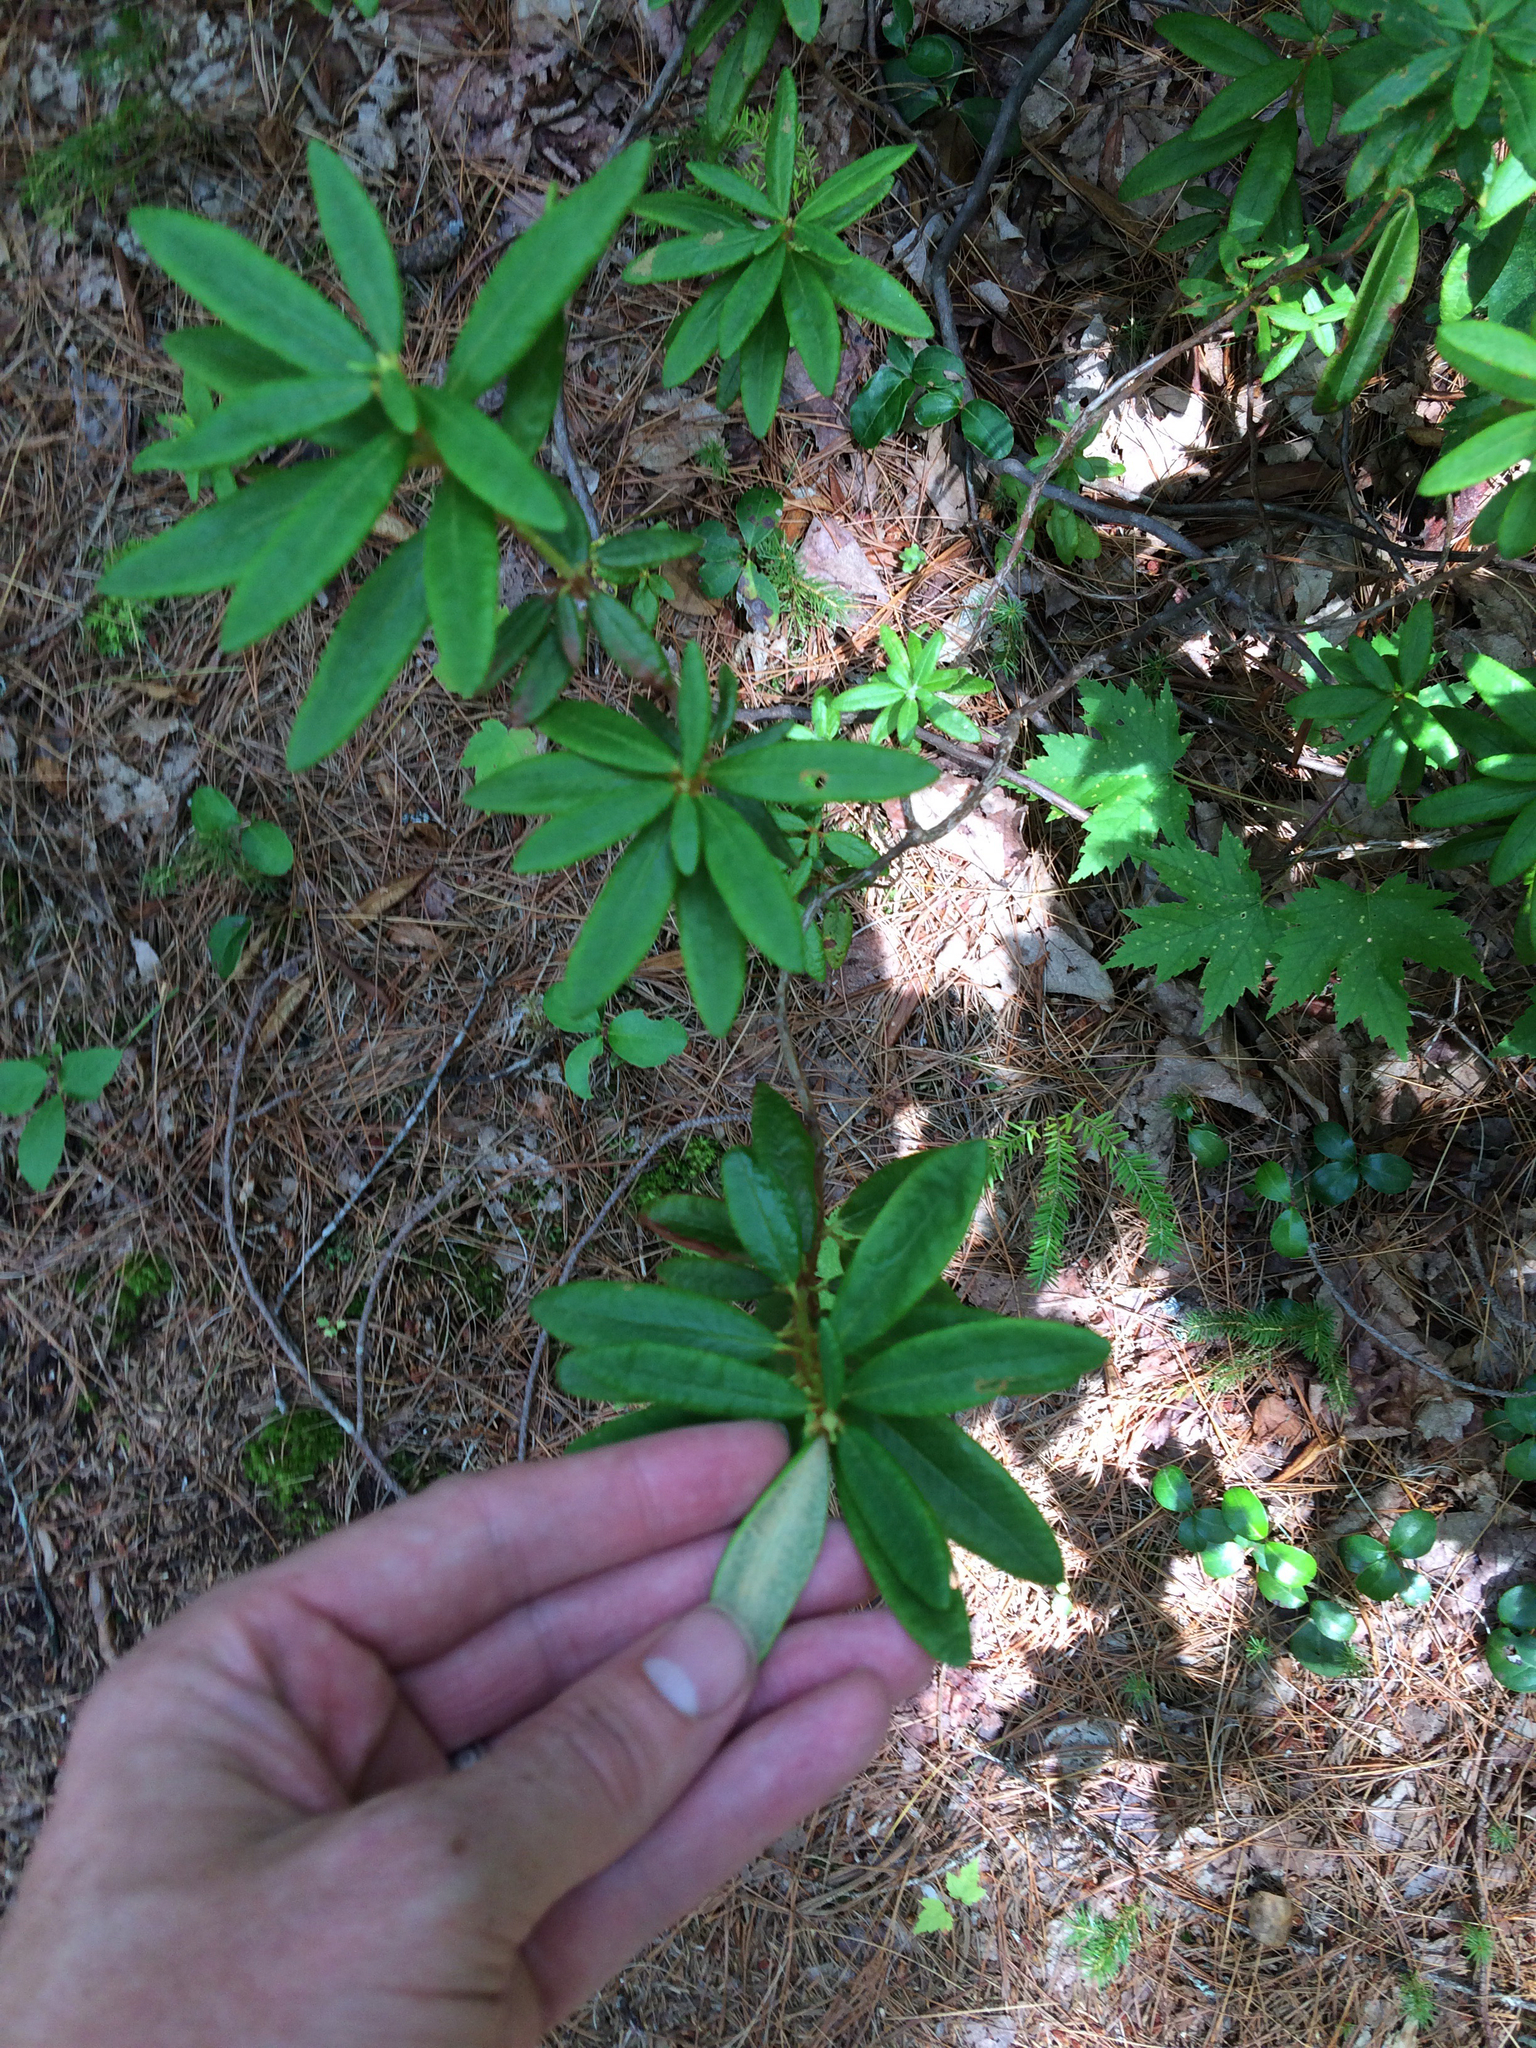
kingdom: Plantae
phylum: Tracheophyta
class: Magnoliopsida
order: Ericales
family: Ericaceae
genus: Rhododendron
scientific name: Rhododendron groenlandicum
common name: Bog labrador tea
